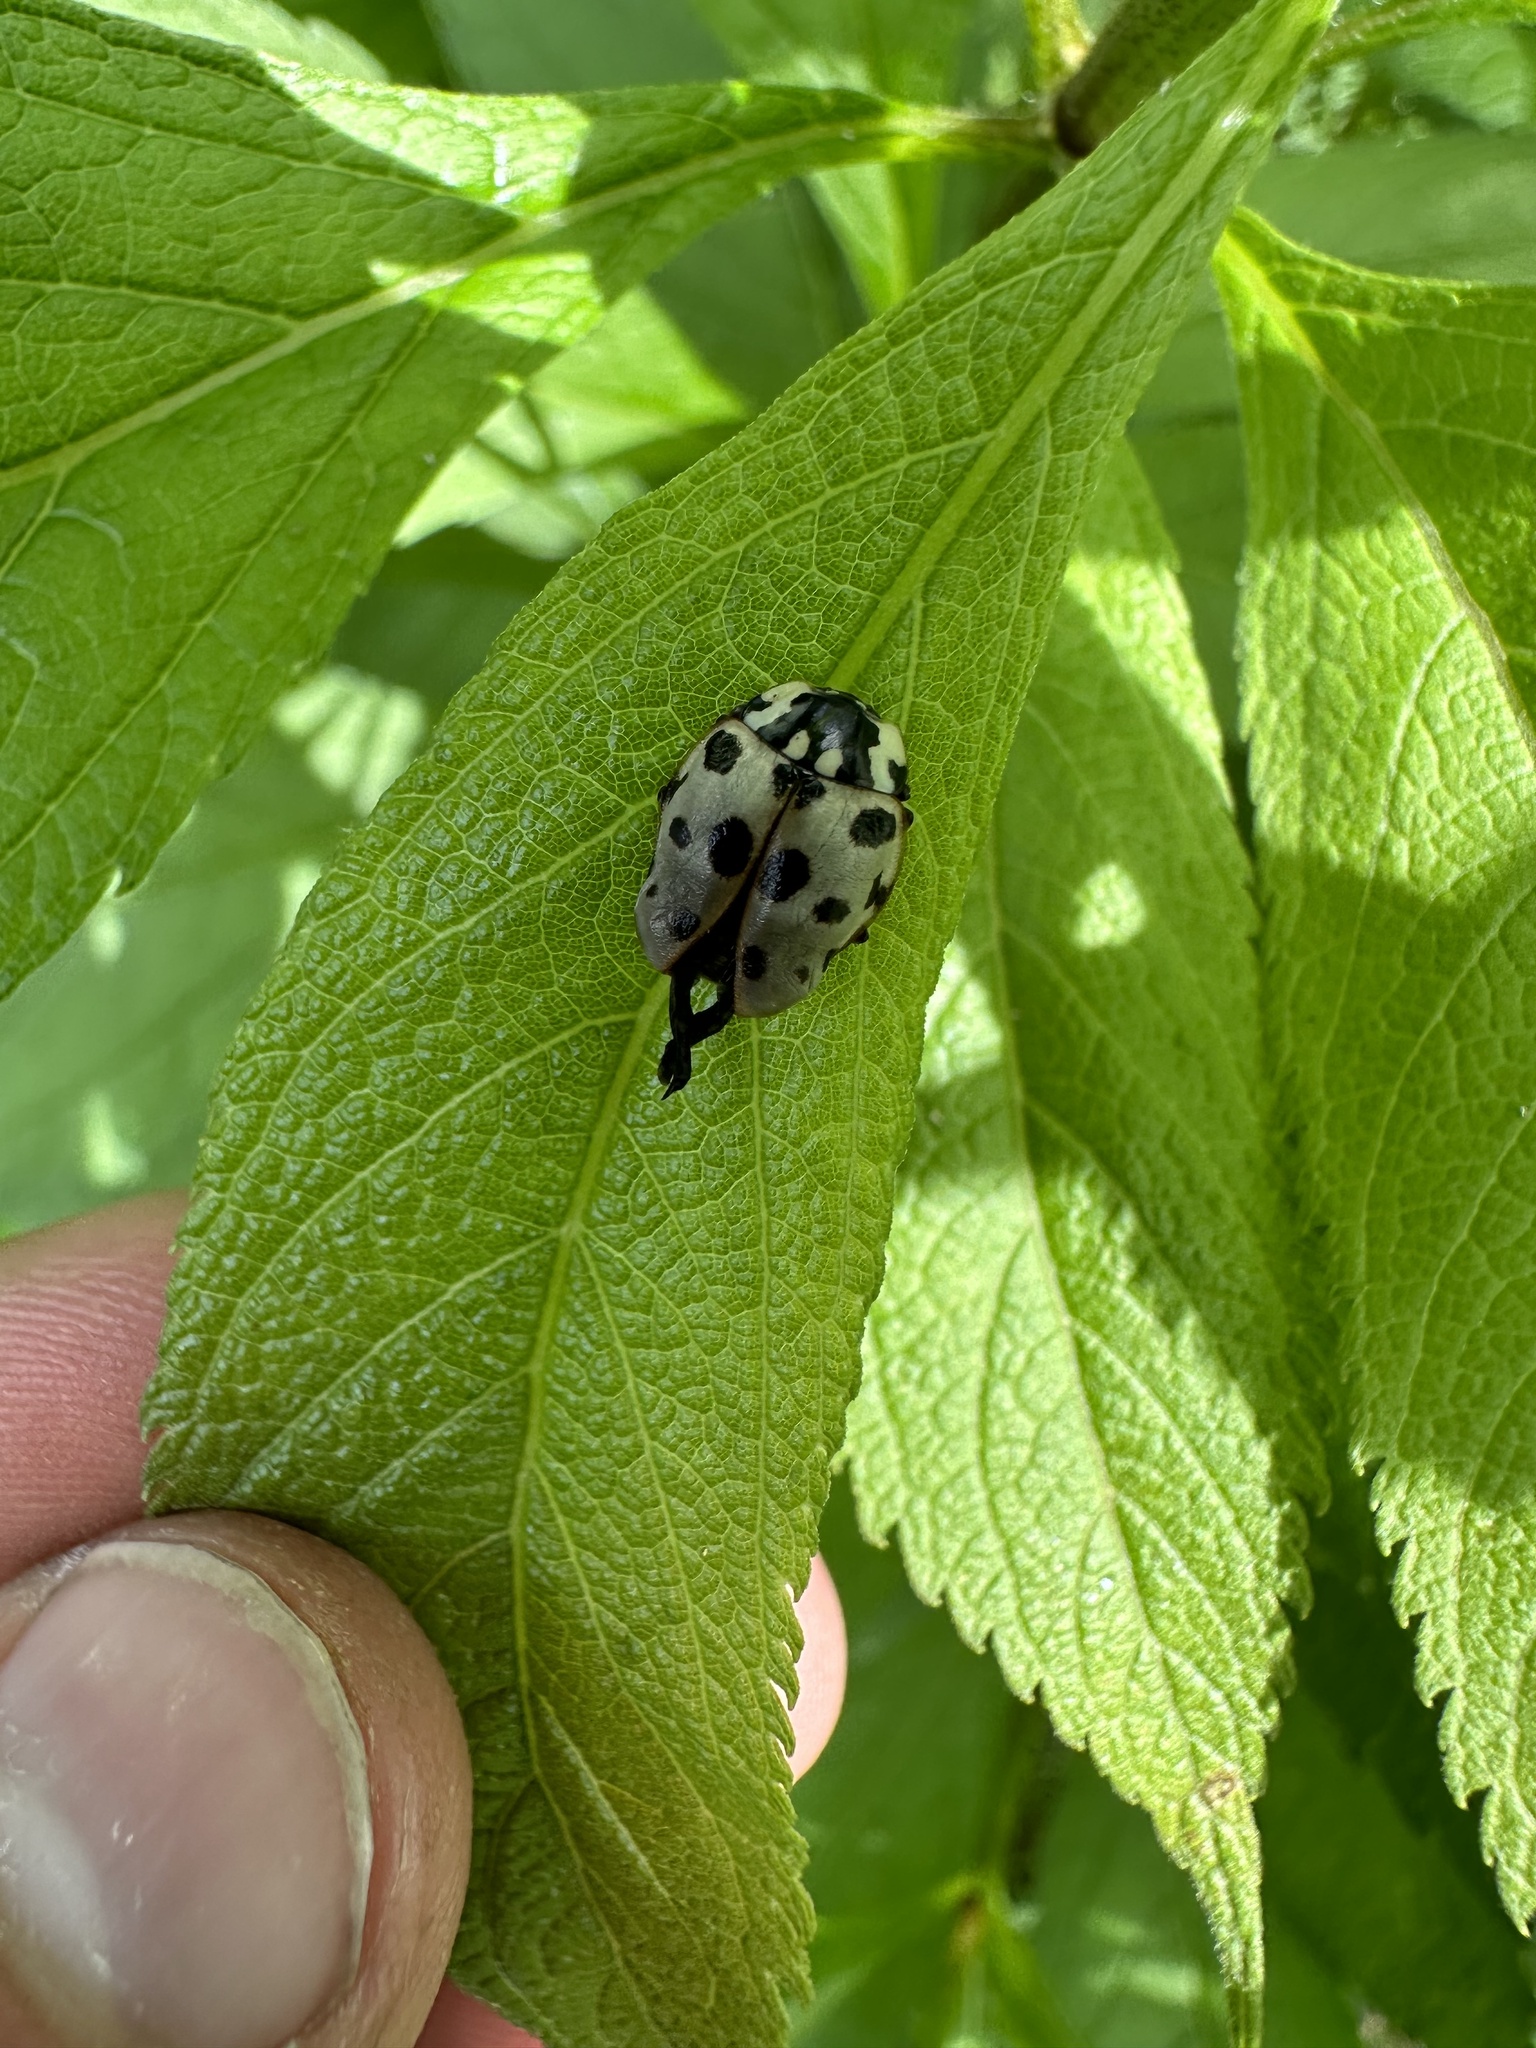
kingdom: Animalia
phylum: Arthropoda
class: Insecta
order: Coleoptera
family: Coccinellidae
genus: Anatis
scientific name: Anatis labiculata
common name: Fifteen-spotted lady beetle
